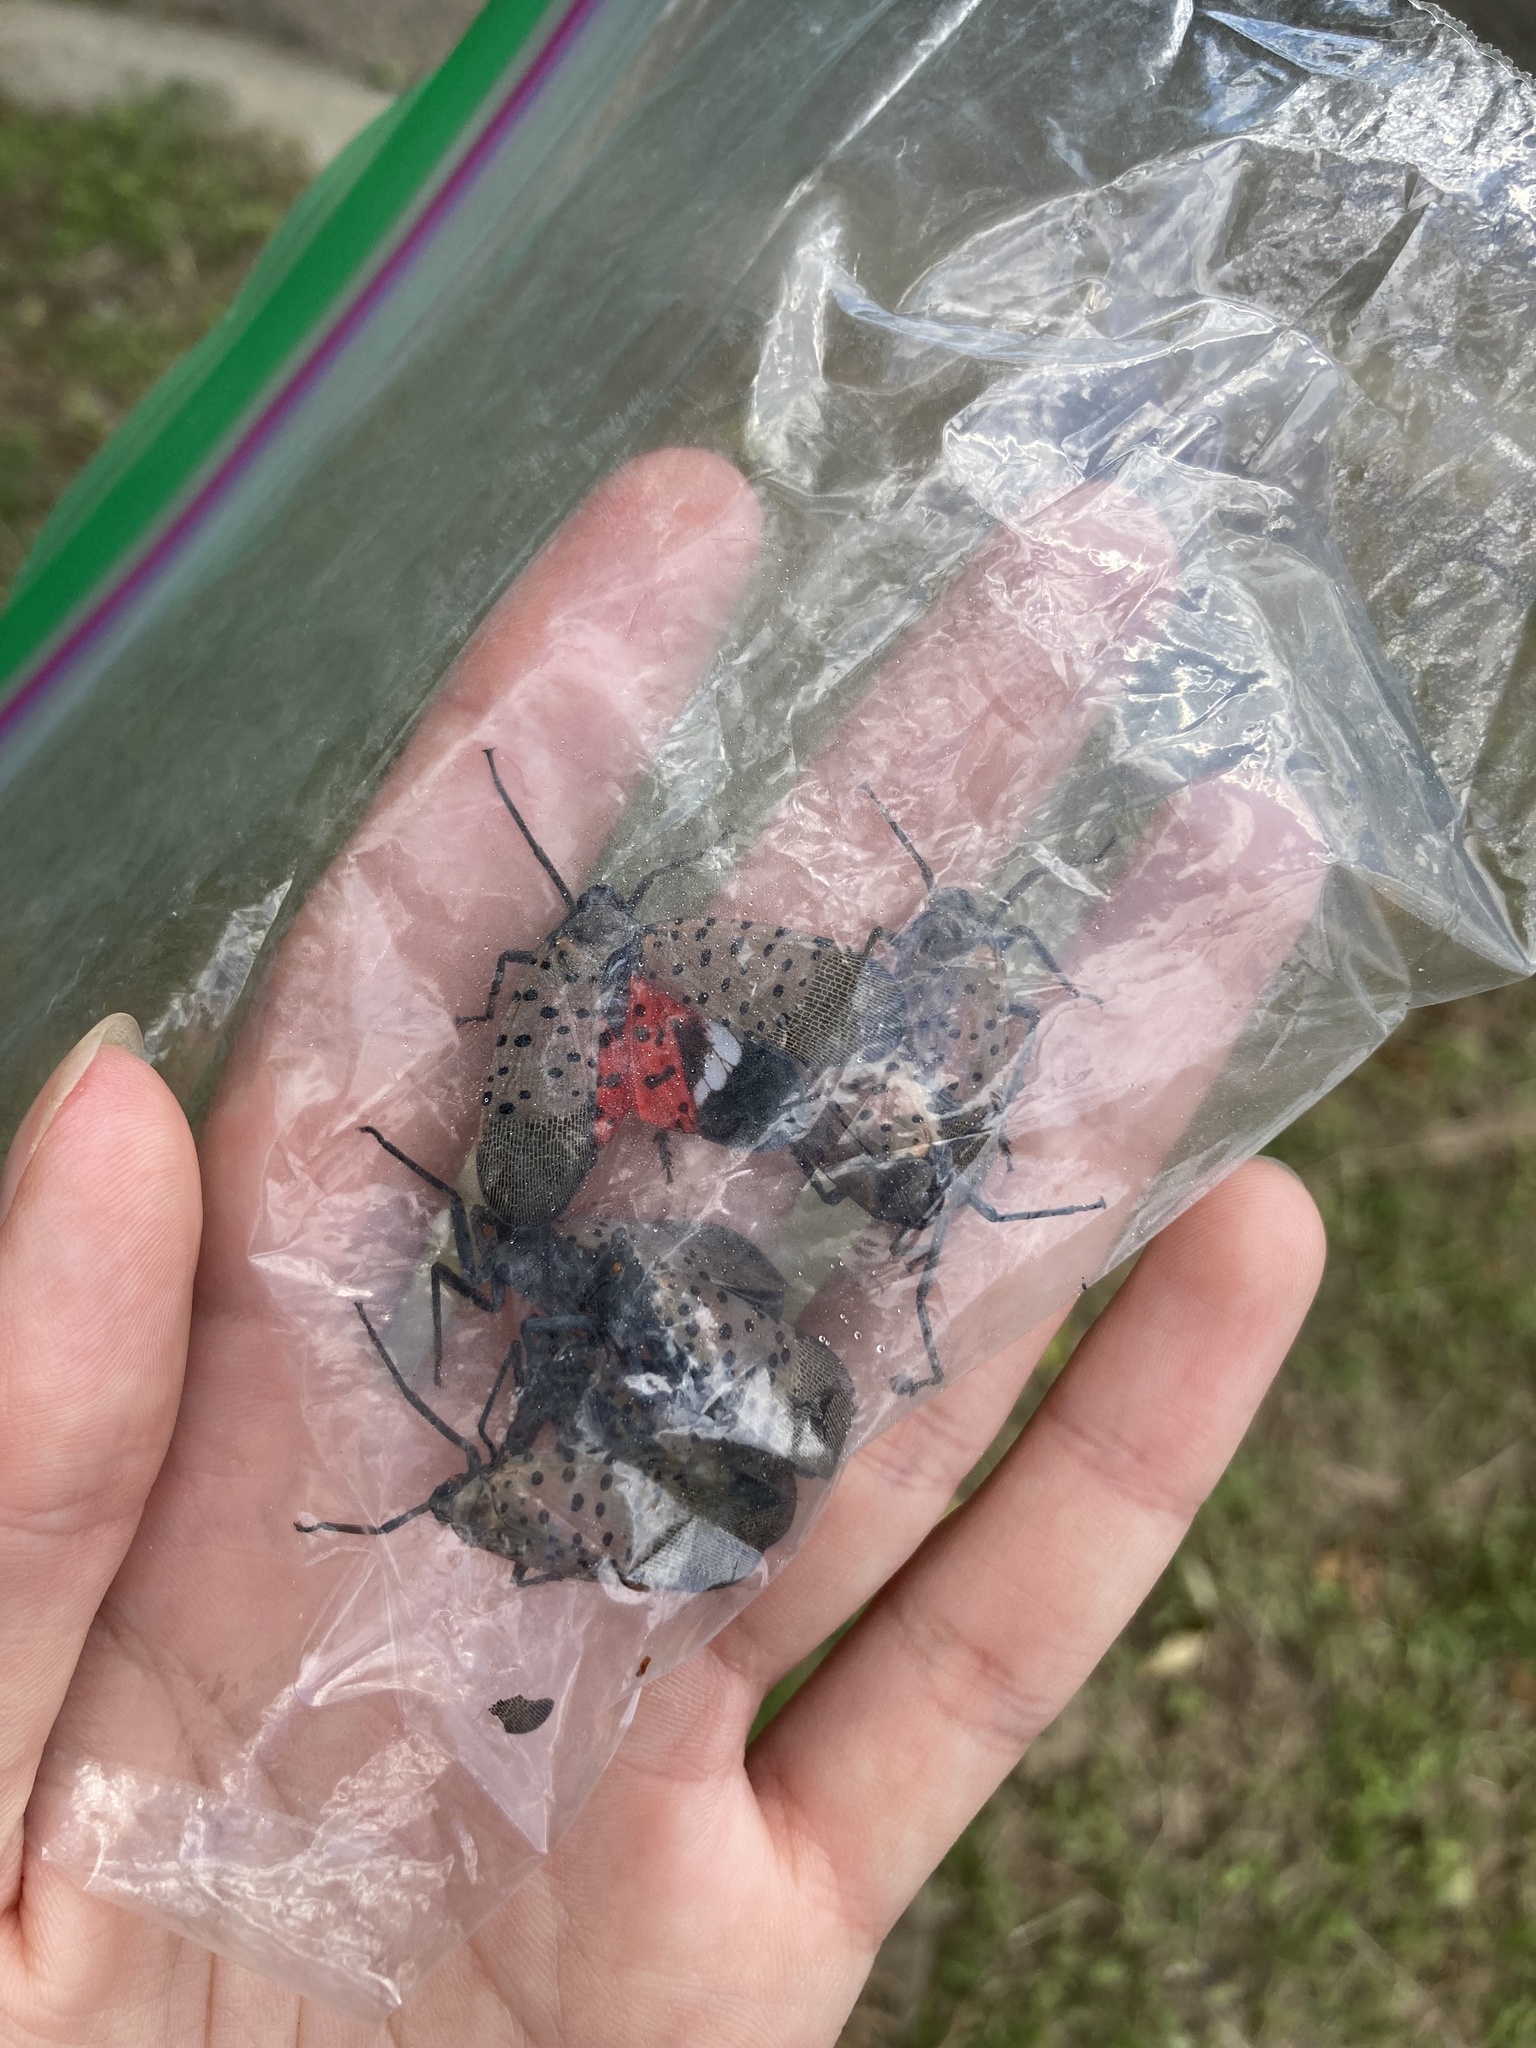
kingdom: Animalia
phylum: Arthropoda
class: Insecta
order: Hemiptera
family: Fulgoridae
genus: Lycorma
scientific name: Lycorma delicatula
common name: Spotted lanternfly
